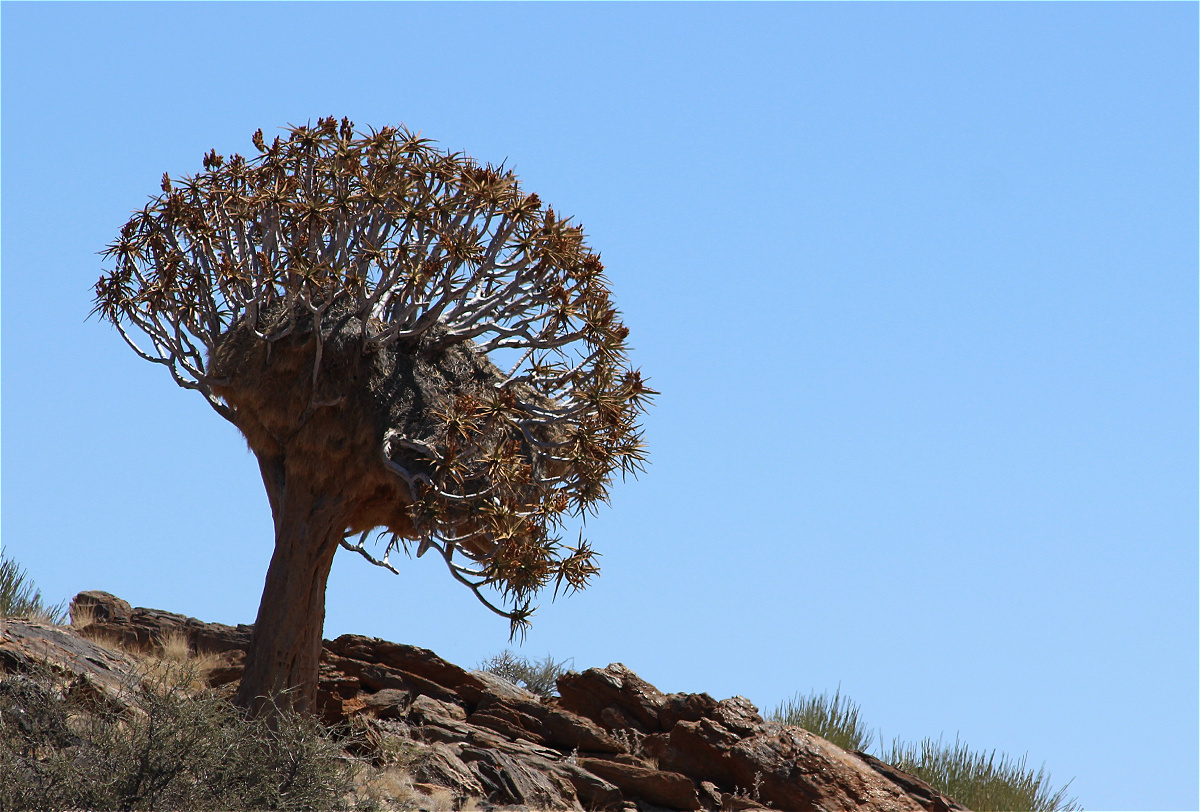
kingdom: Plantae
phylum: Tracheophyta
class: Liliopsida
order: Asparagales
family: Asphodelaceae
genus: Aloidendron
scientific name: Aloidendron dichotomum
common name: Quiver tree
